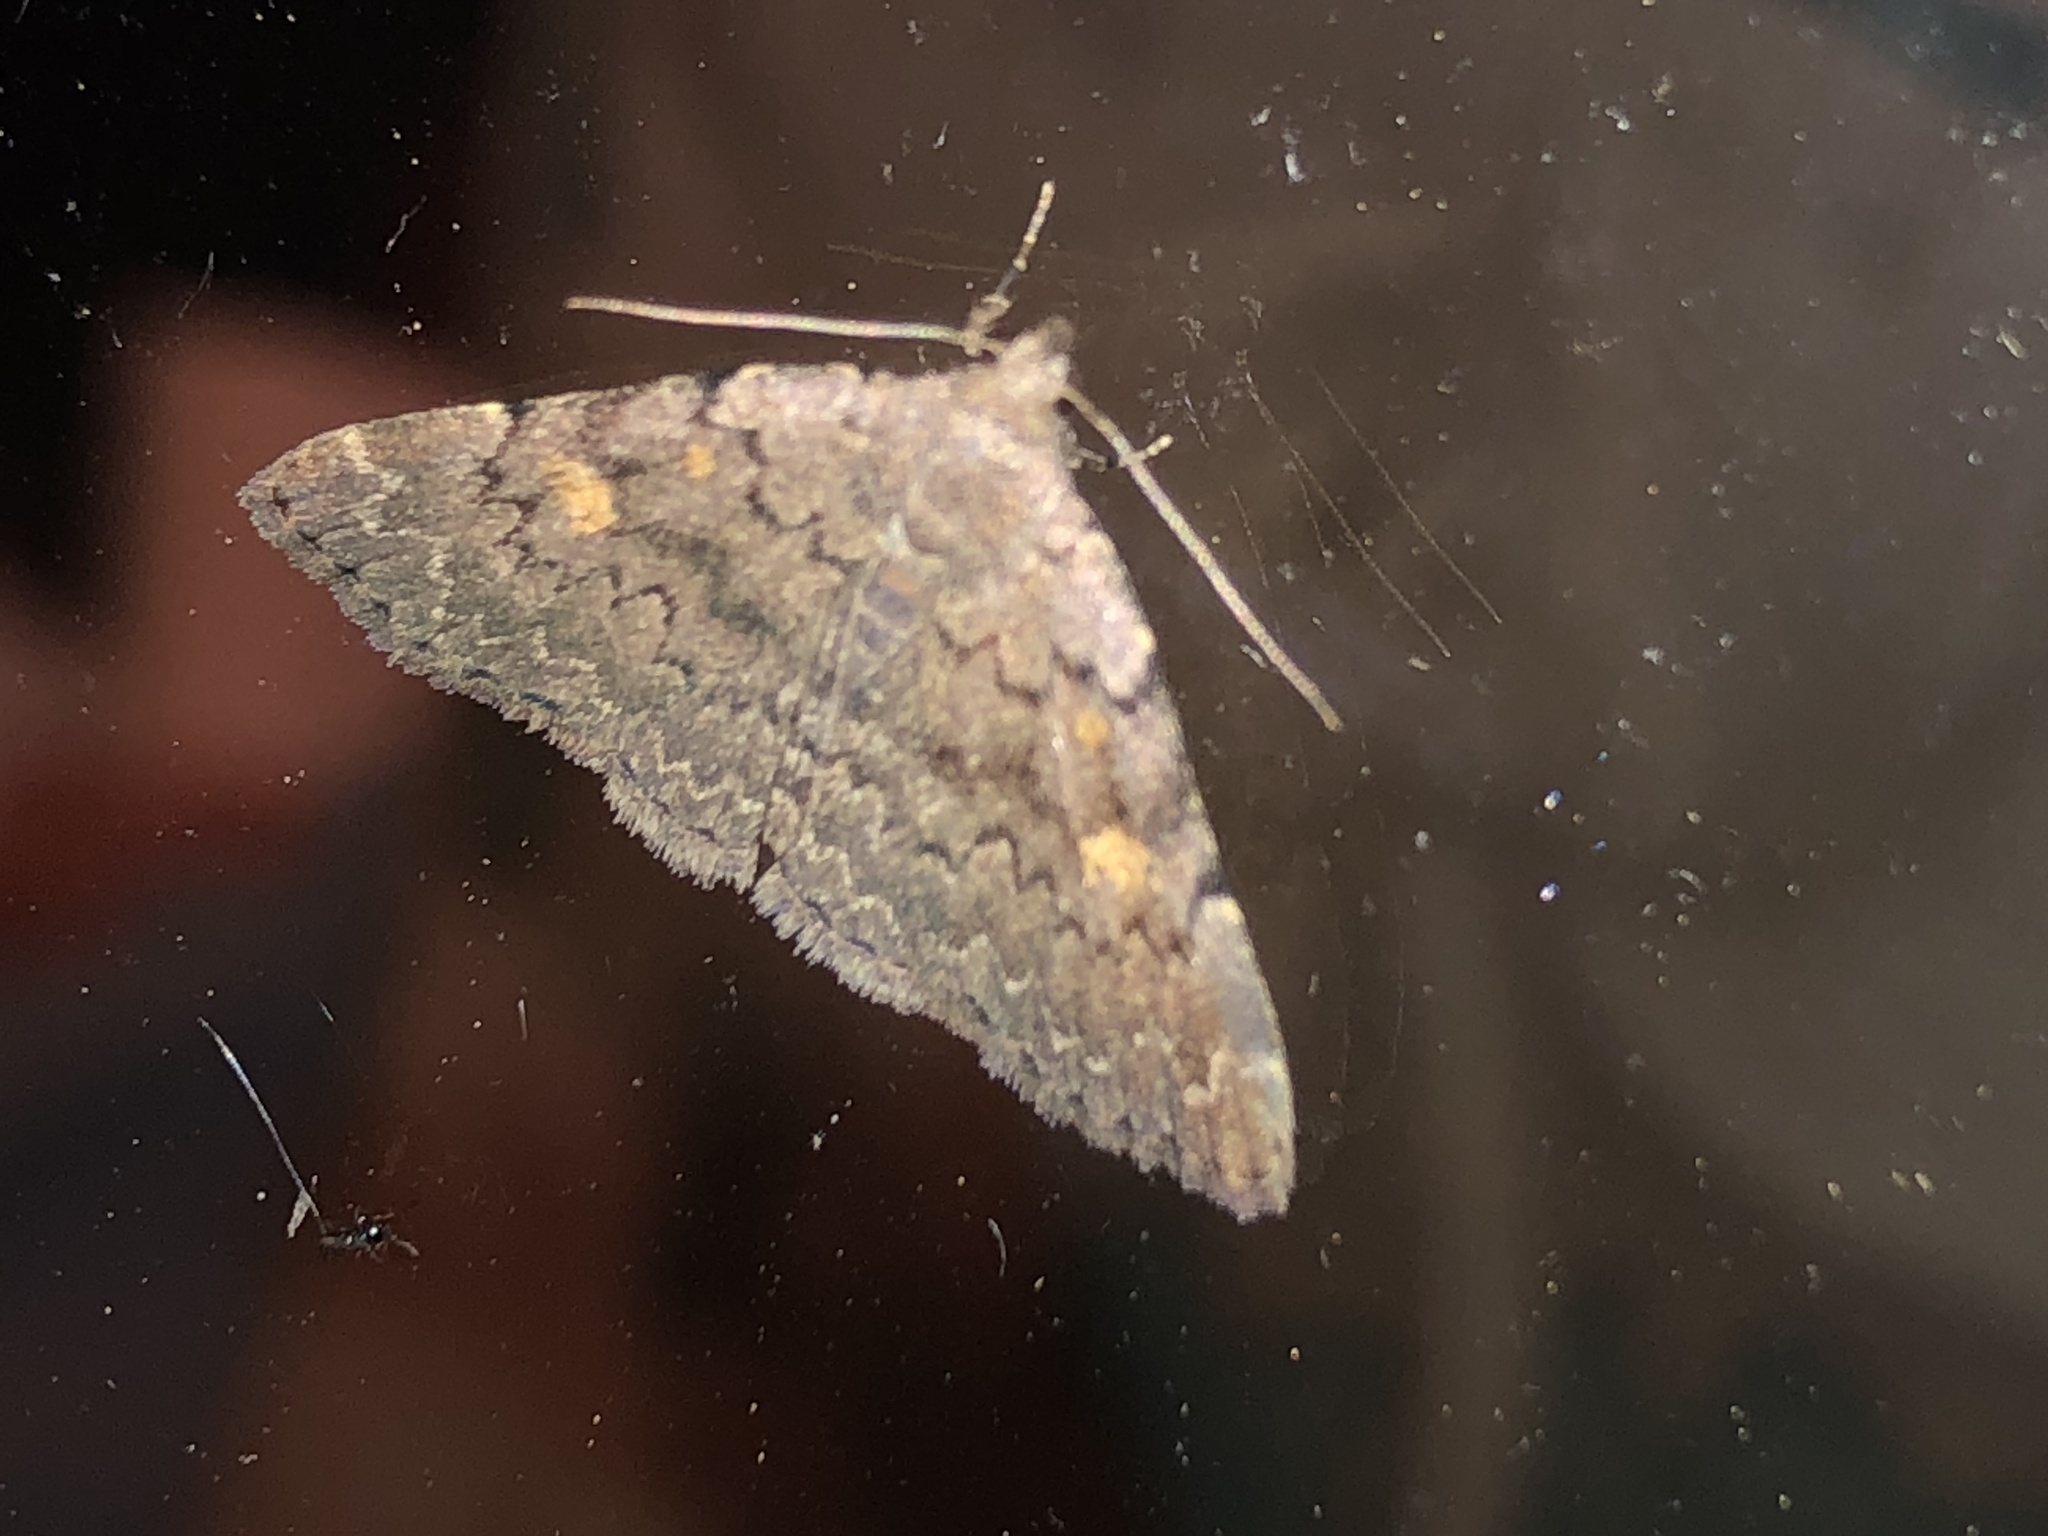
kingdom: Animalia
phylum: Arthropoda
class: Insecta
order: Lepidoptera
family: Erebidae
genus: Idia
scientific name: Idia aemula
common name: Common idia moth
